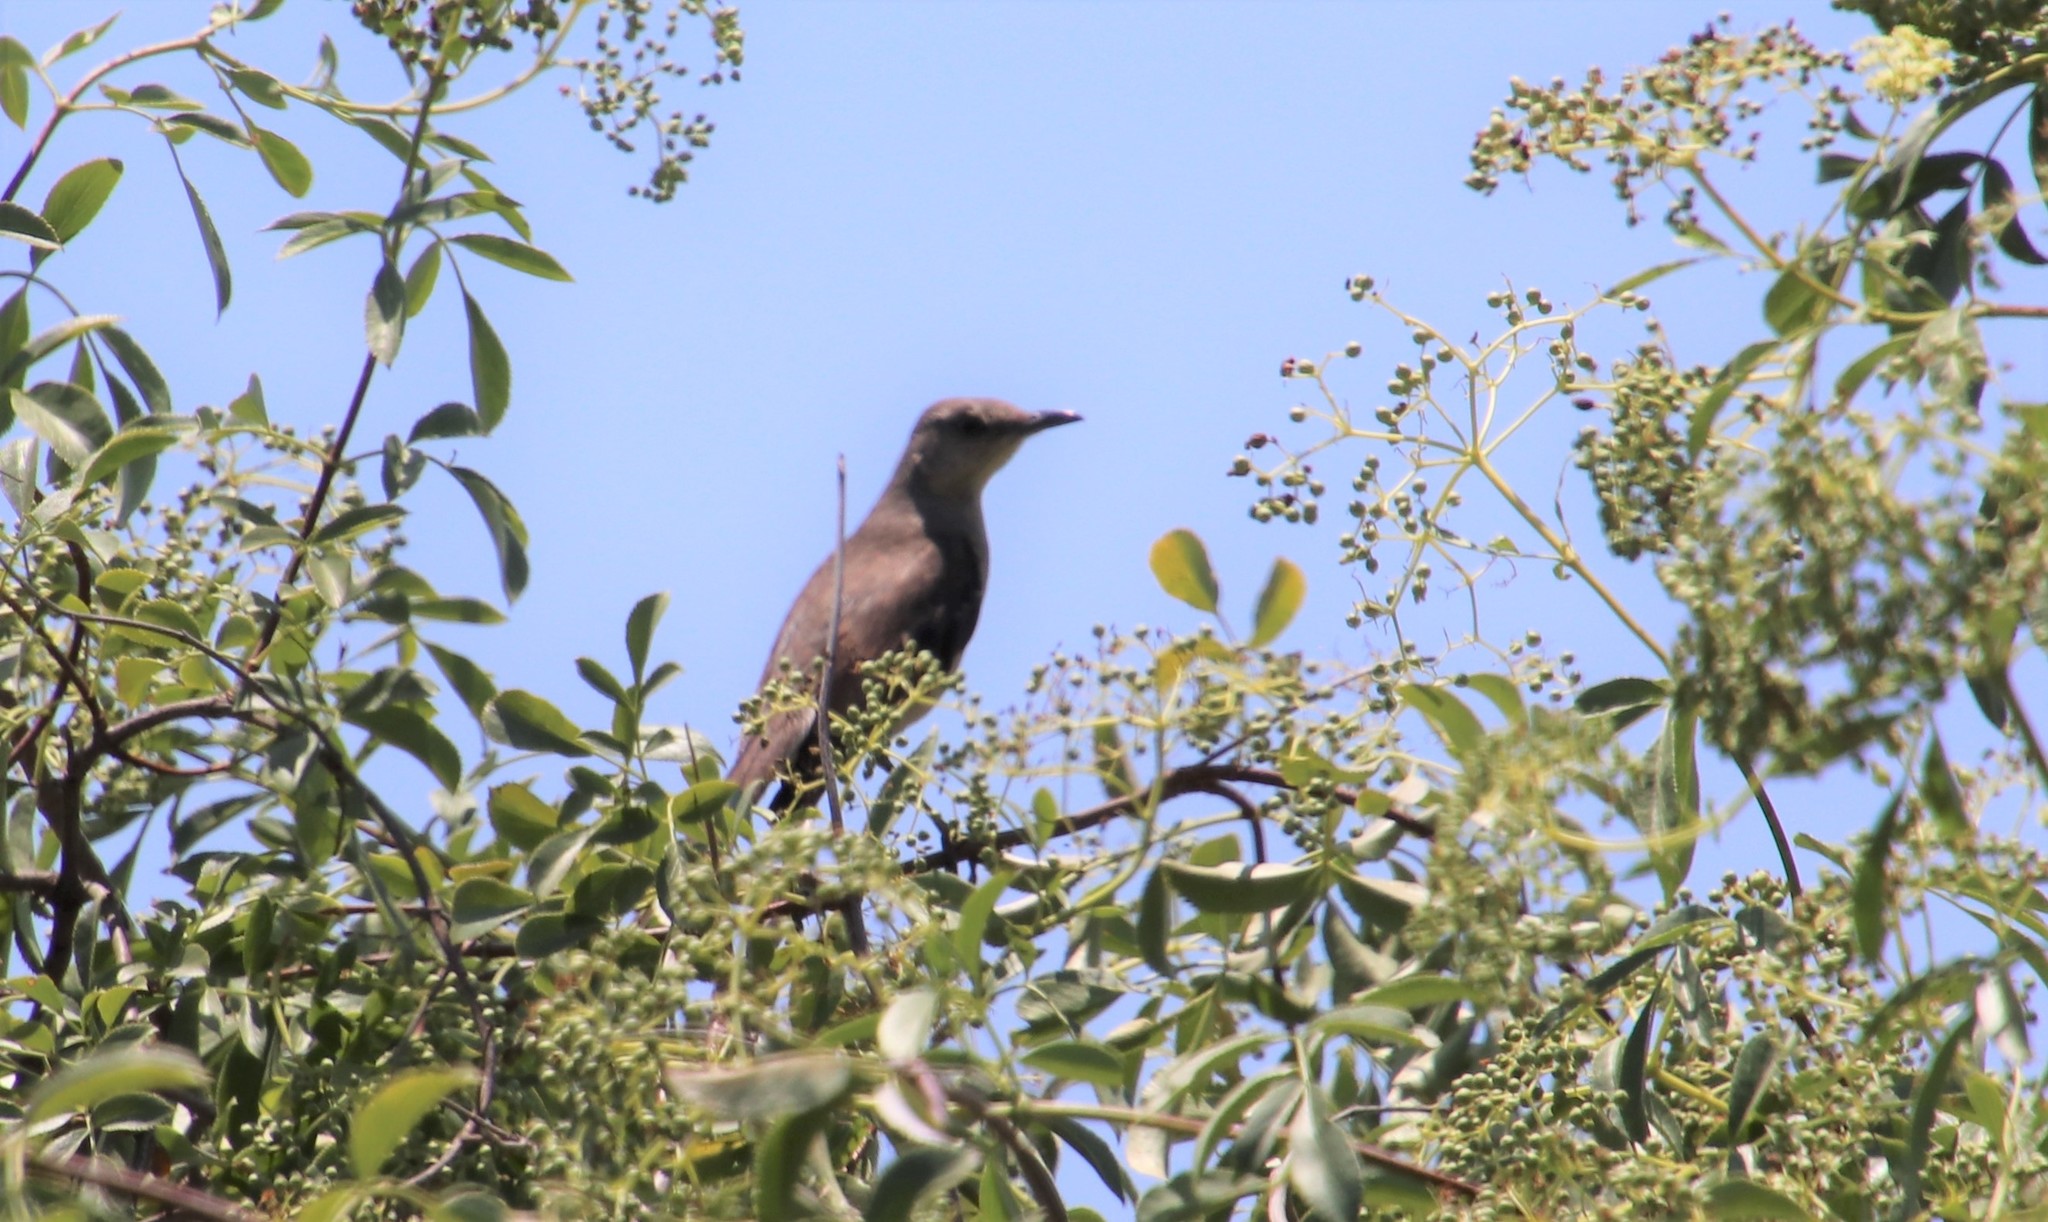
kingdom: Animalia
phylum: Chordata
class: Aves
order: Passeriformes
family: Mimidae
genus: Mimus
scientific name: Mimus polyglottos
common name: Northern mockingbird
